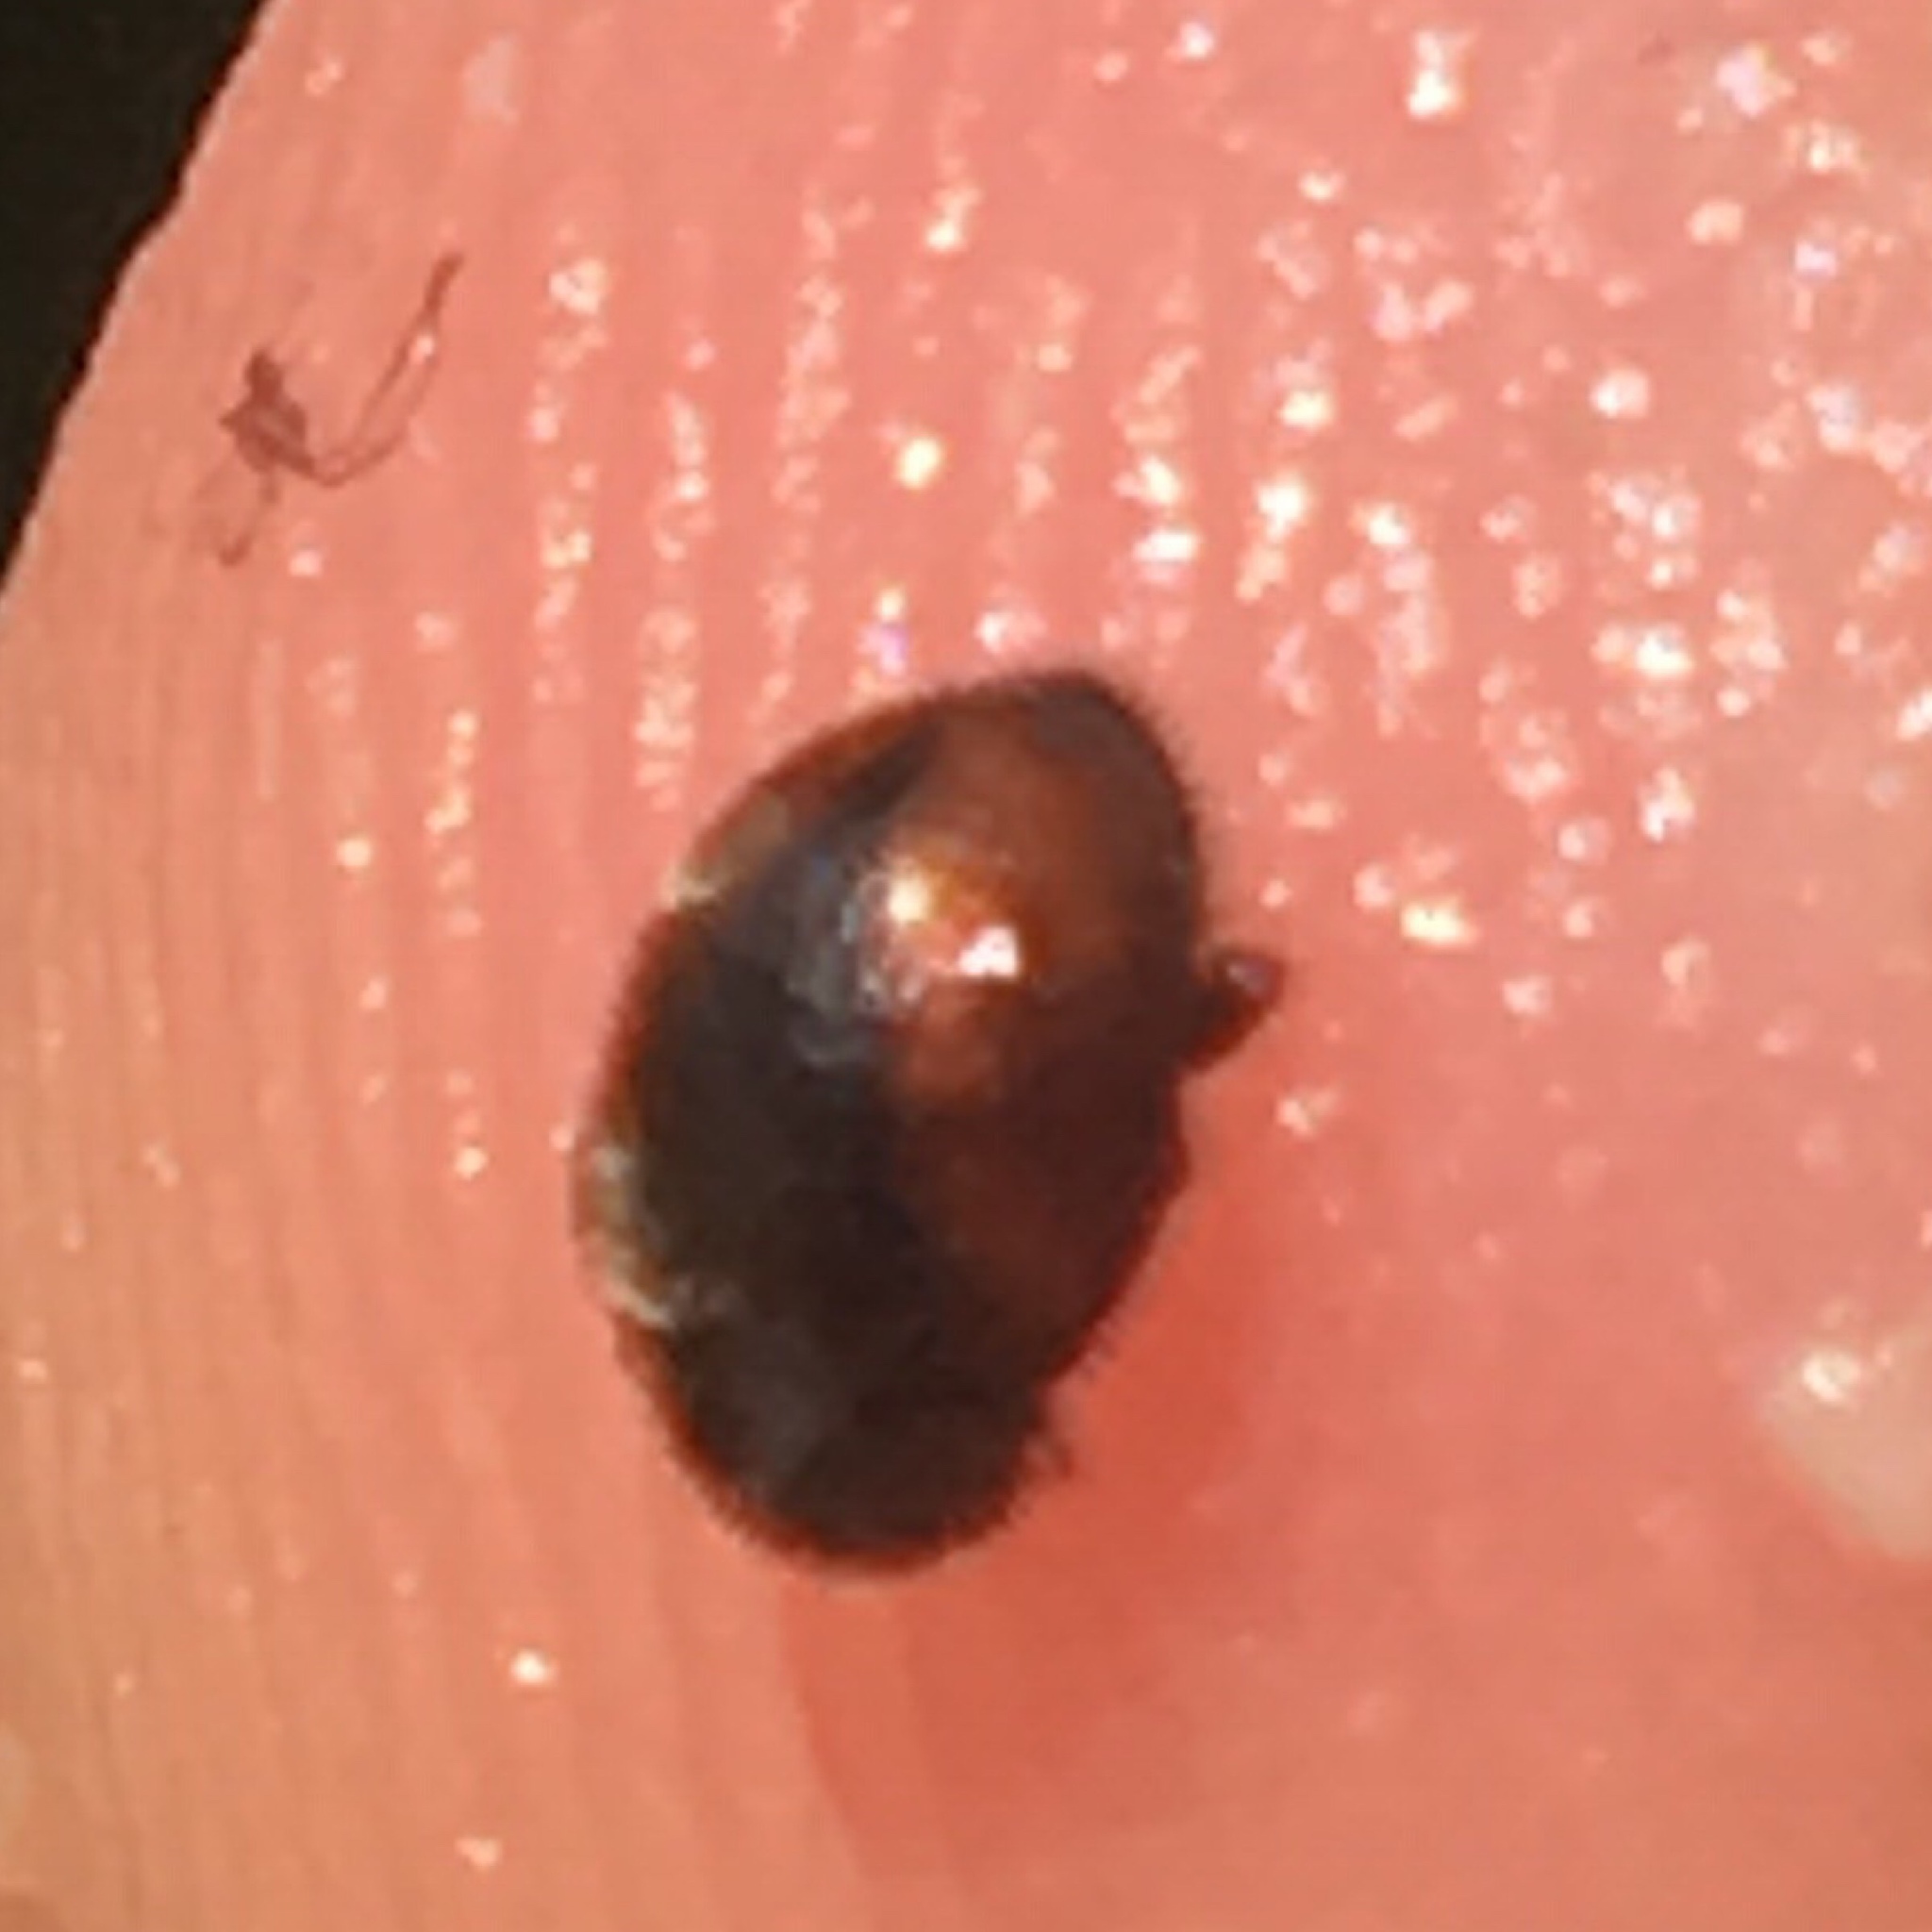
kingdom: Animalia
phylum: Arthropoda
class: Insecta
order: Coleoptera
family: Coccinellidae
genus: Scymnus
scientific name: Scymnus loewii
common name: Dusky lady beetle
